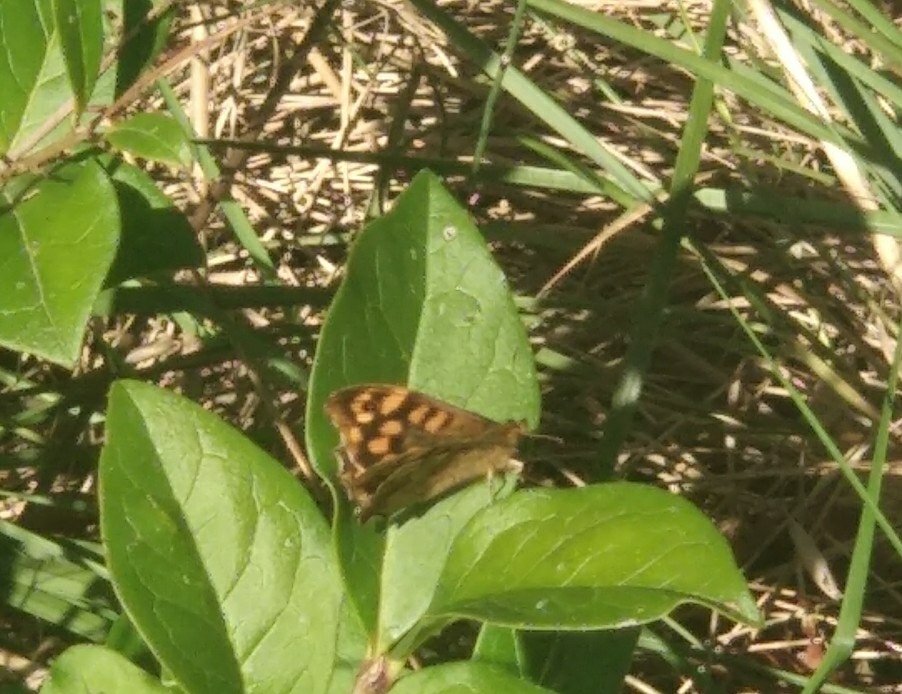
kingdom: Animalia
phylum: Arthropoda
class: Insecta
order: Lepidoptera
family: Nymphalidae
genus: Pararge
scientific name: Pararge aegeria
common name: Speckled wood
